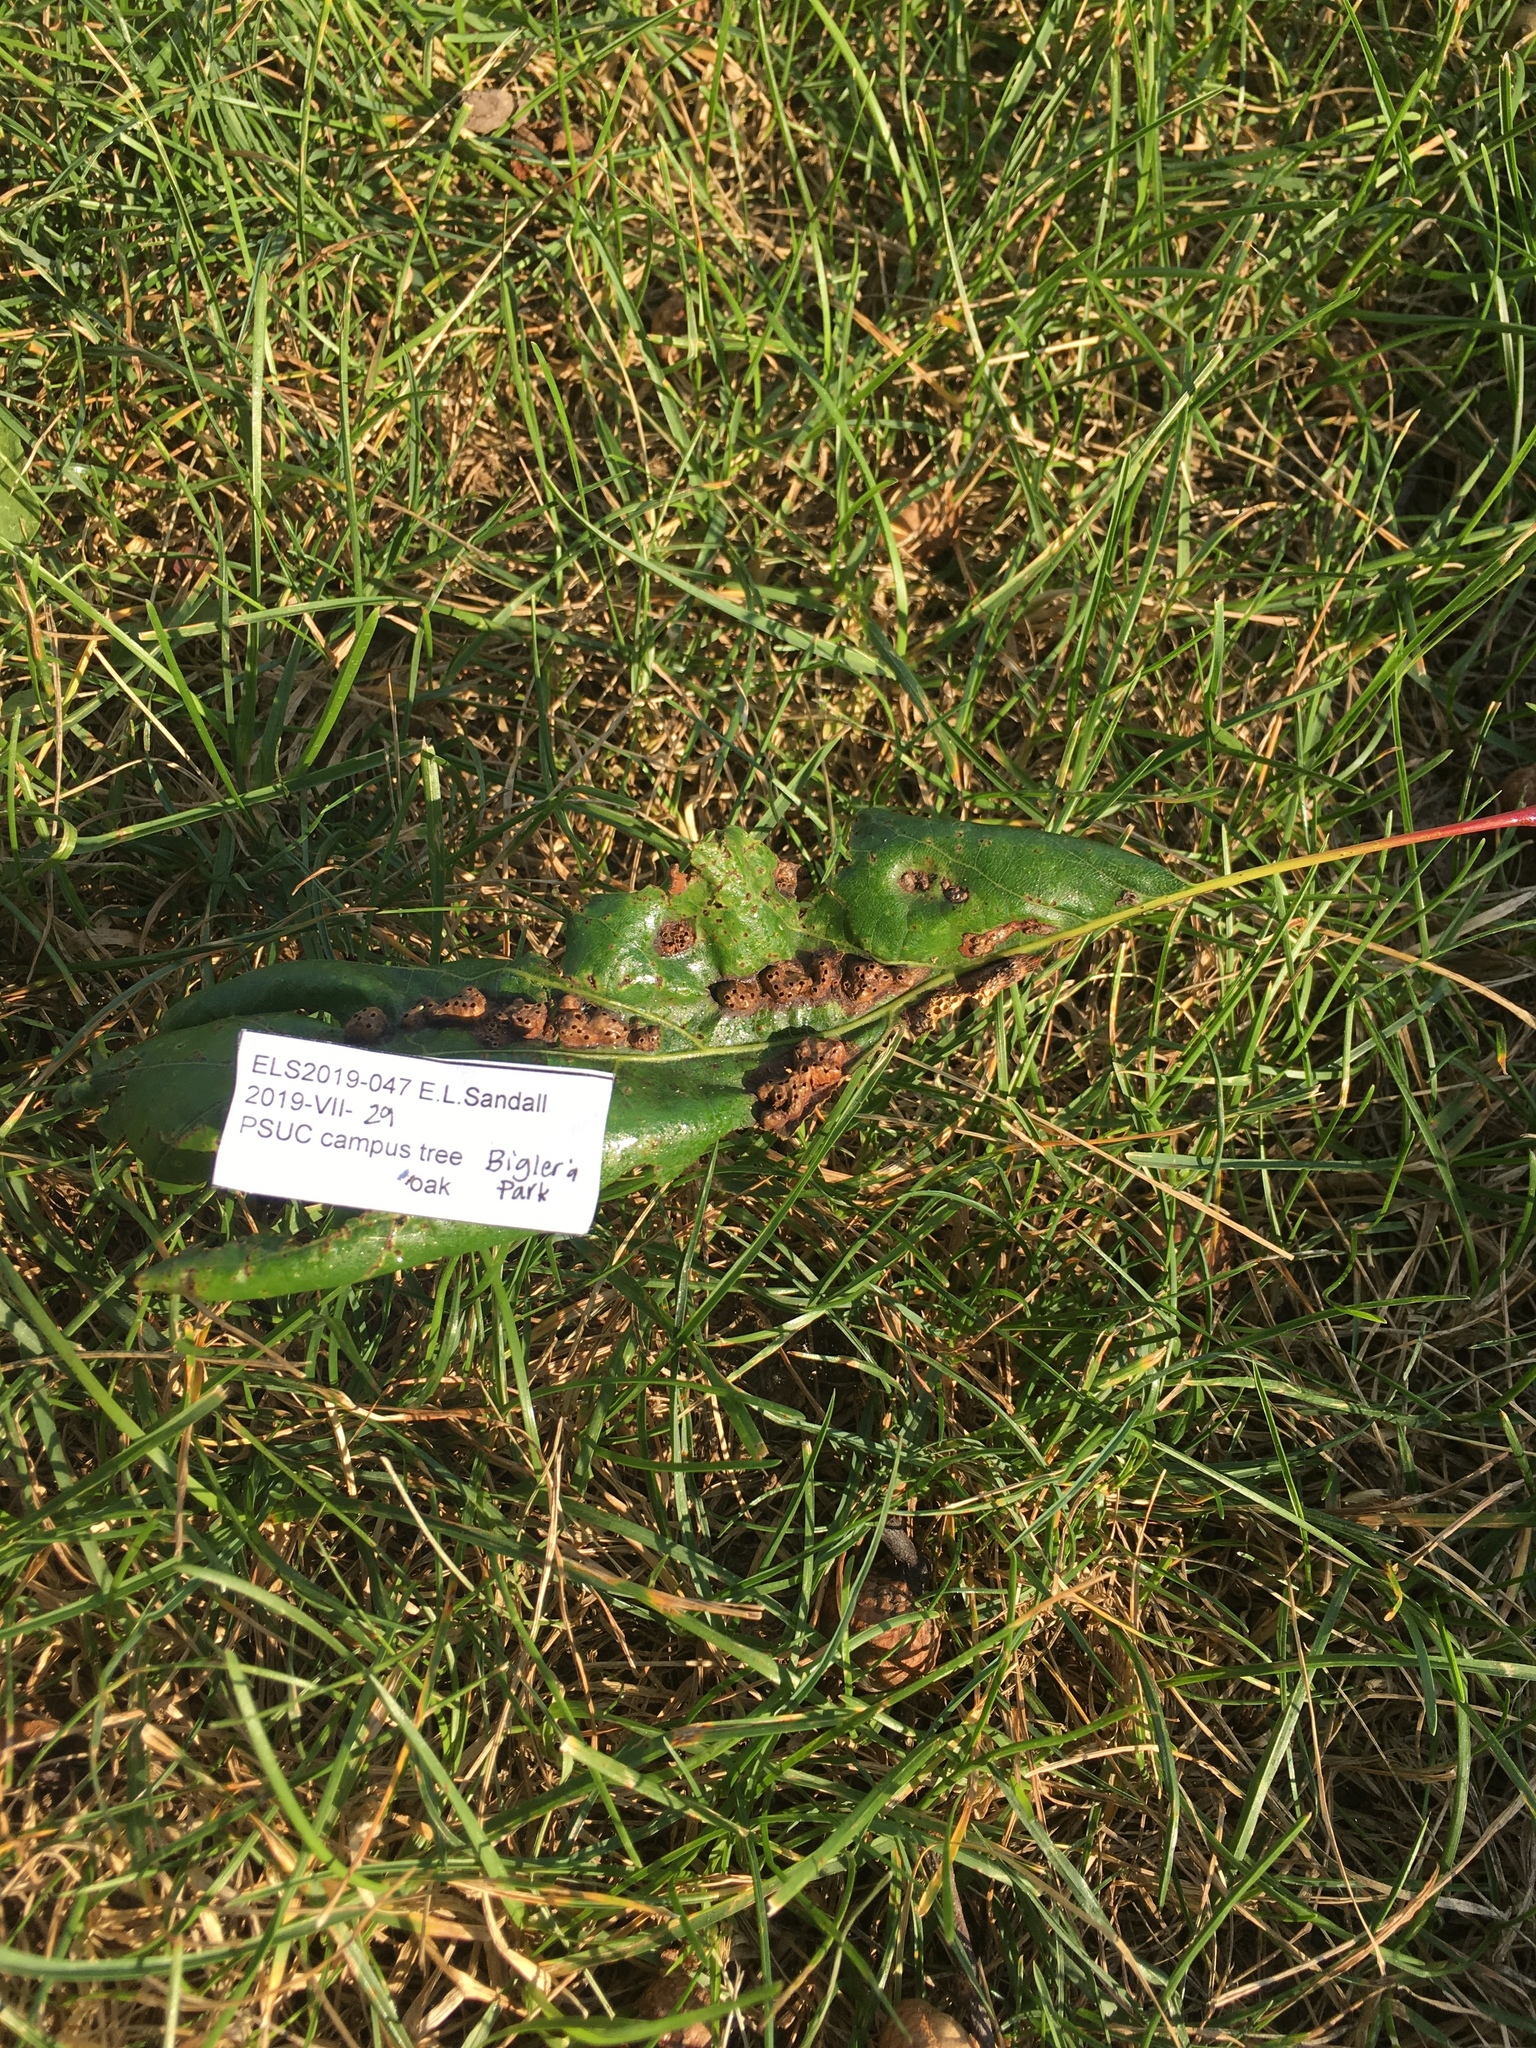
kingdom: Animalia
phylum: Arthropoda
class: Insecta
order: Hymenoptera
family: Cynipidae
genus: Callirhytis
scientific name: Callirhytis
